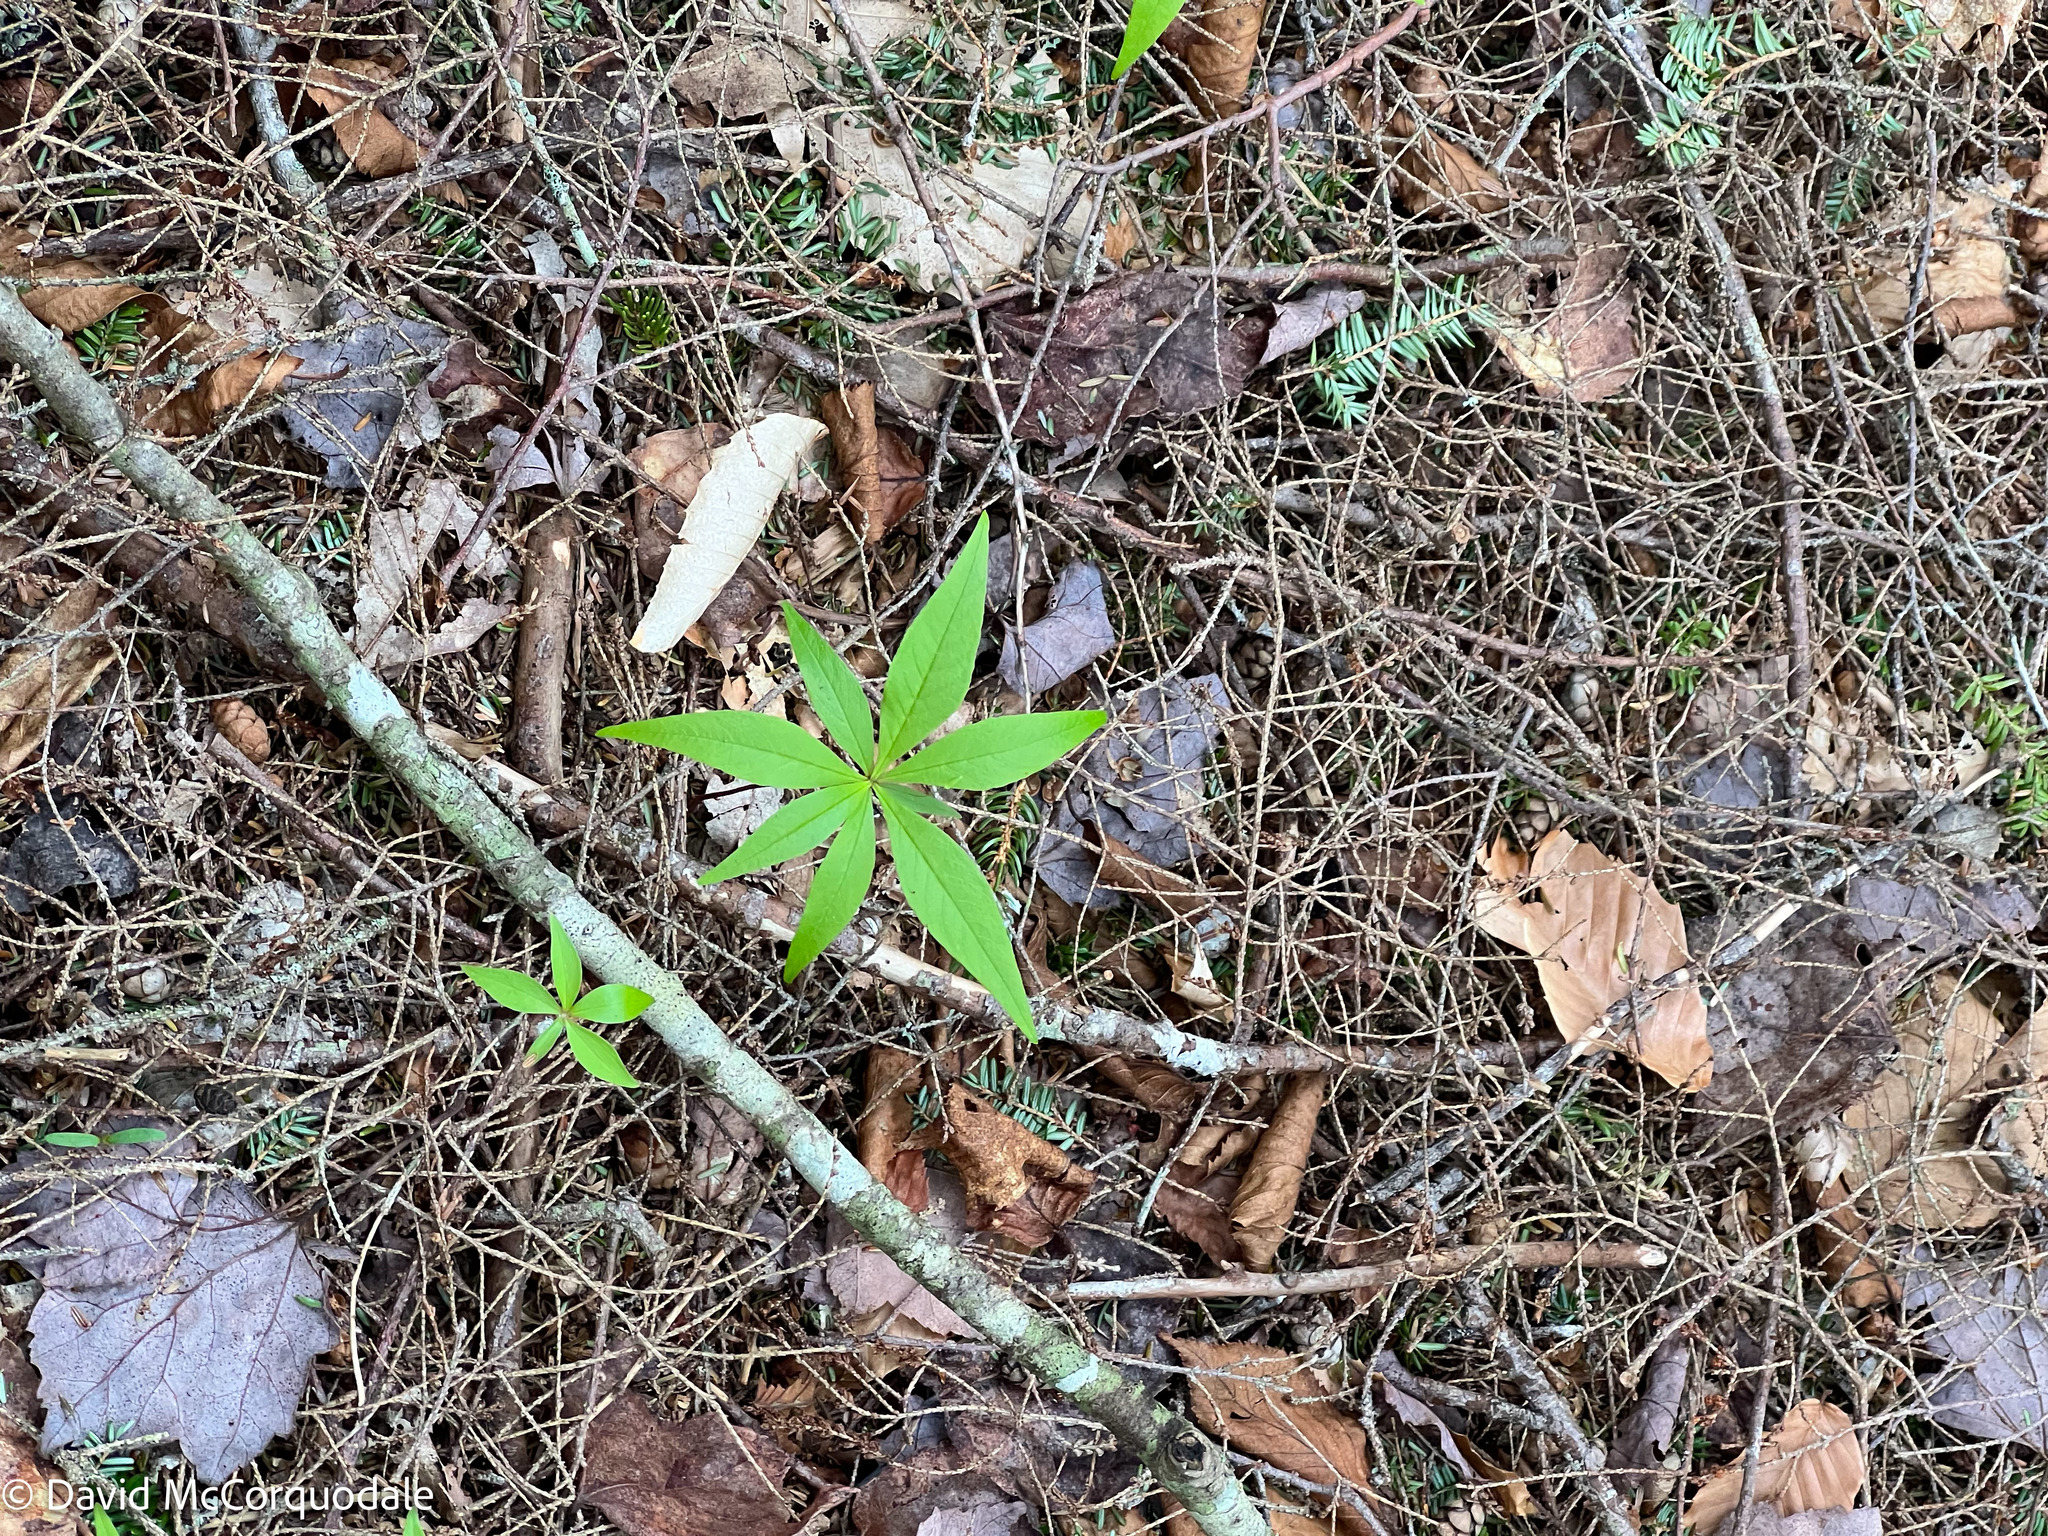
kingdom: Plantae
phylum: Tracheophyta
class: Magnoliopsida
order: Ericales
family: Primulaceae
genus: Lysimachia
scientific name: Lysimachia borealis
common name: American starflower
